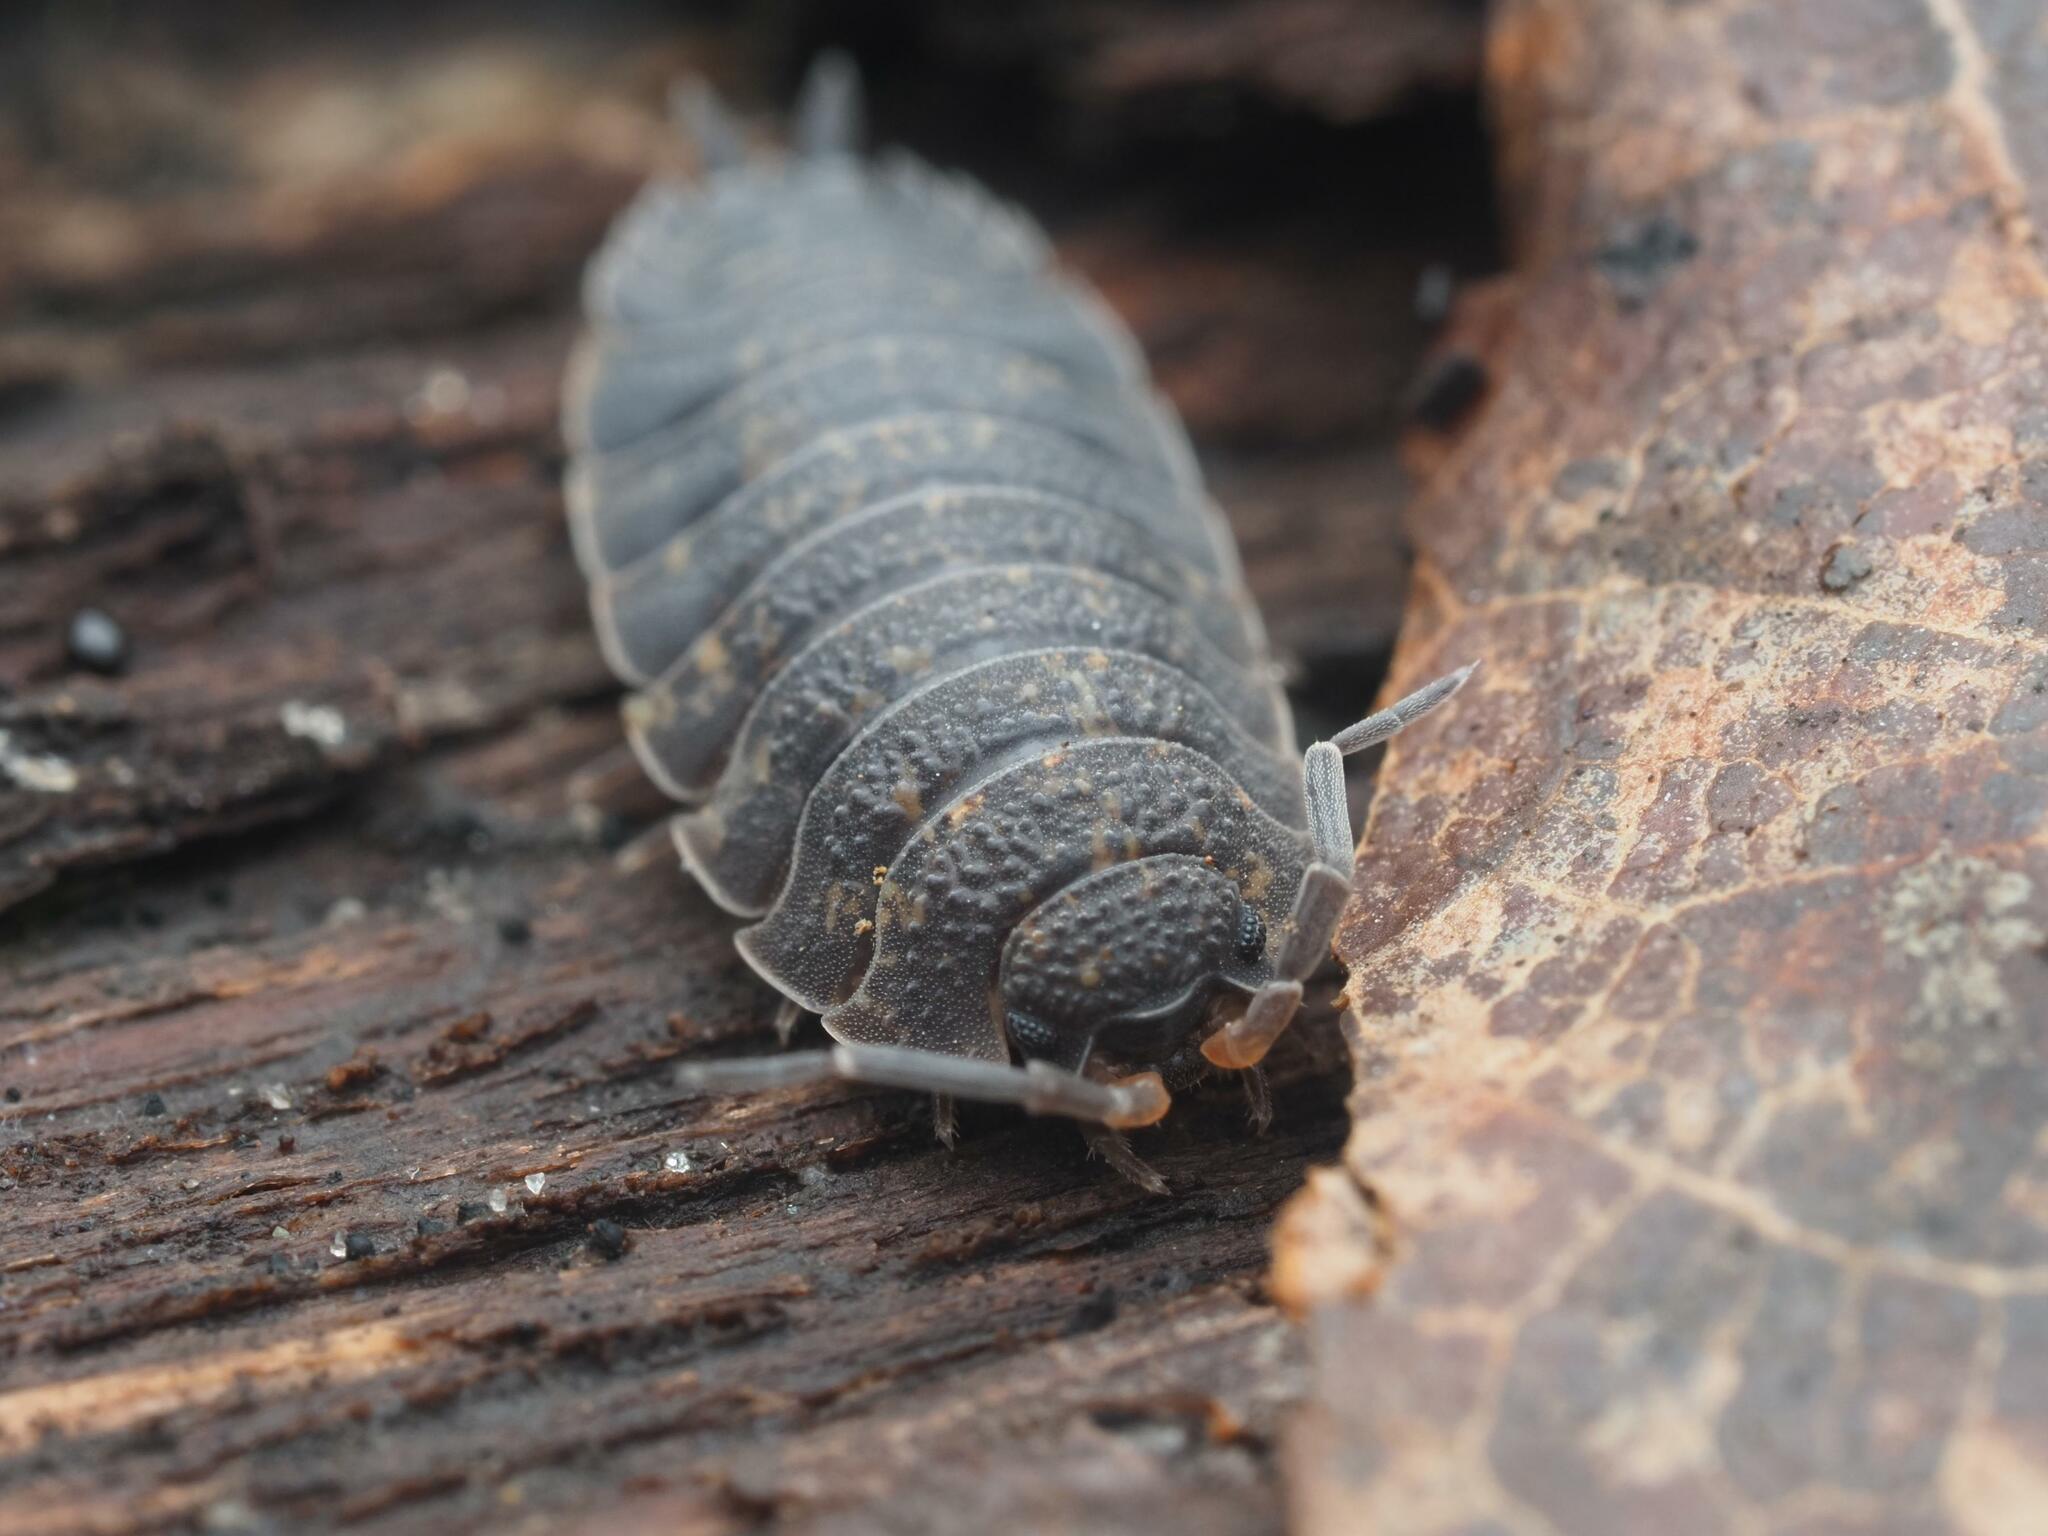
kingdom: Animalia
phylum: Arthropoda
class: Malacostraca
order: Isopoda
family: Porcellionidae
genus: Porcellio
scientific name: Porcellio scaber
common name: Common rough woodlouse
